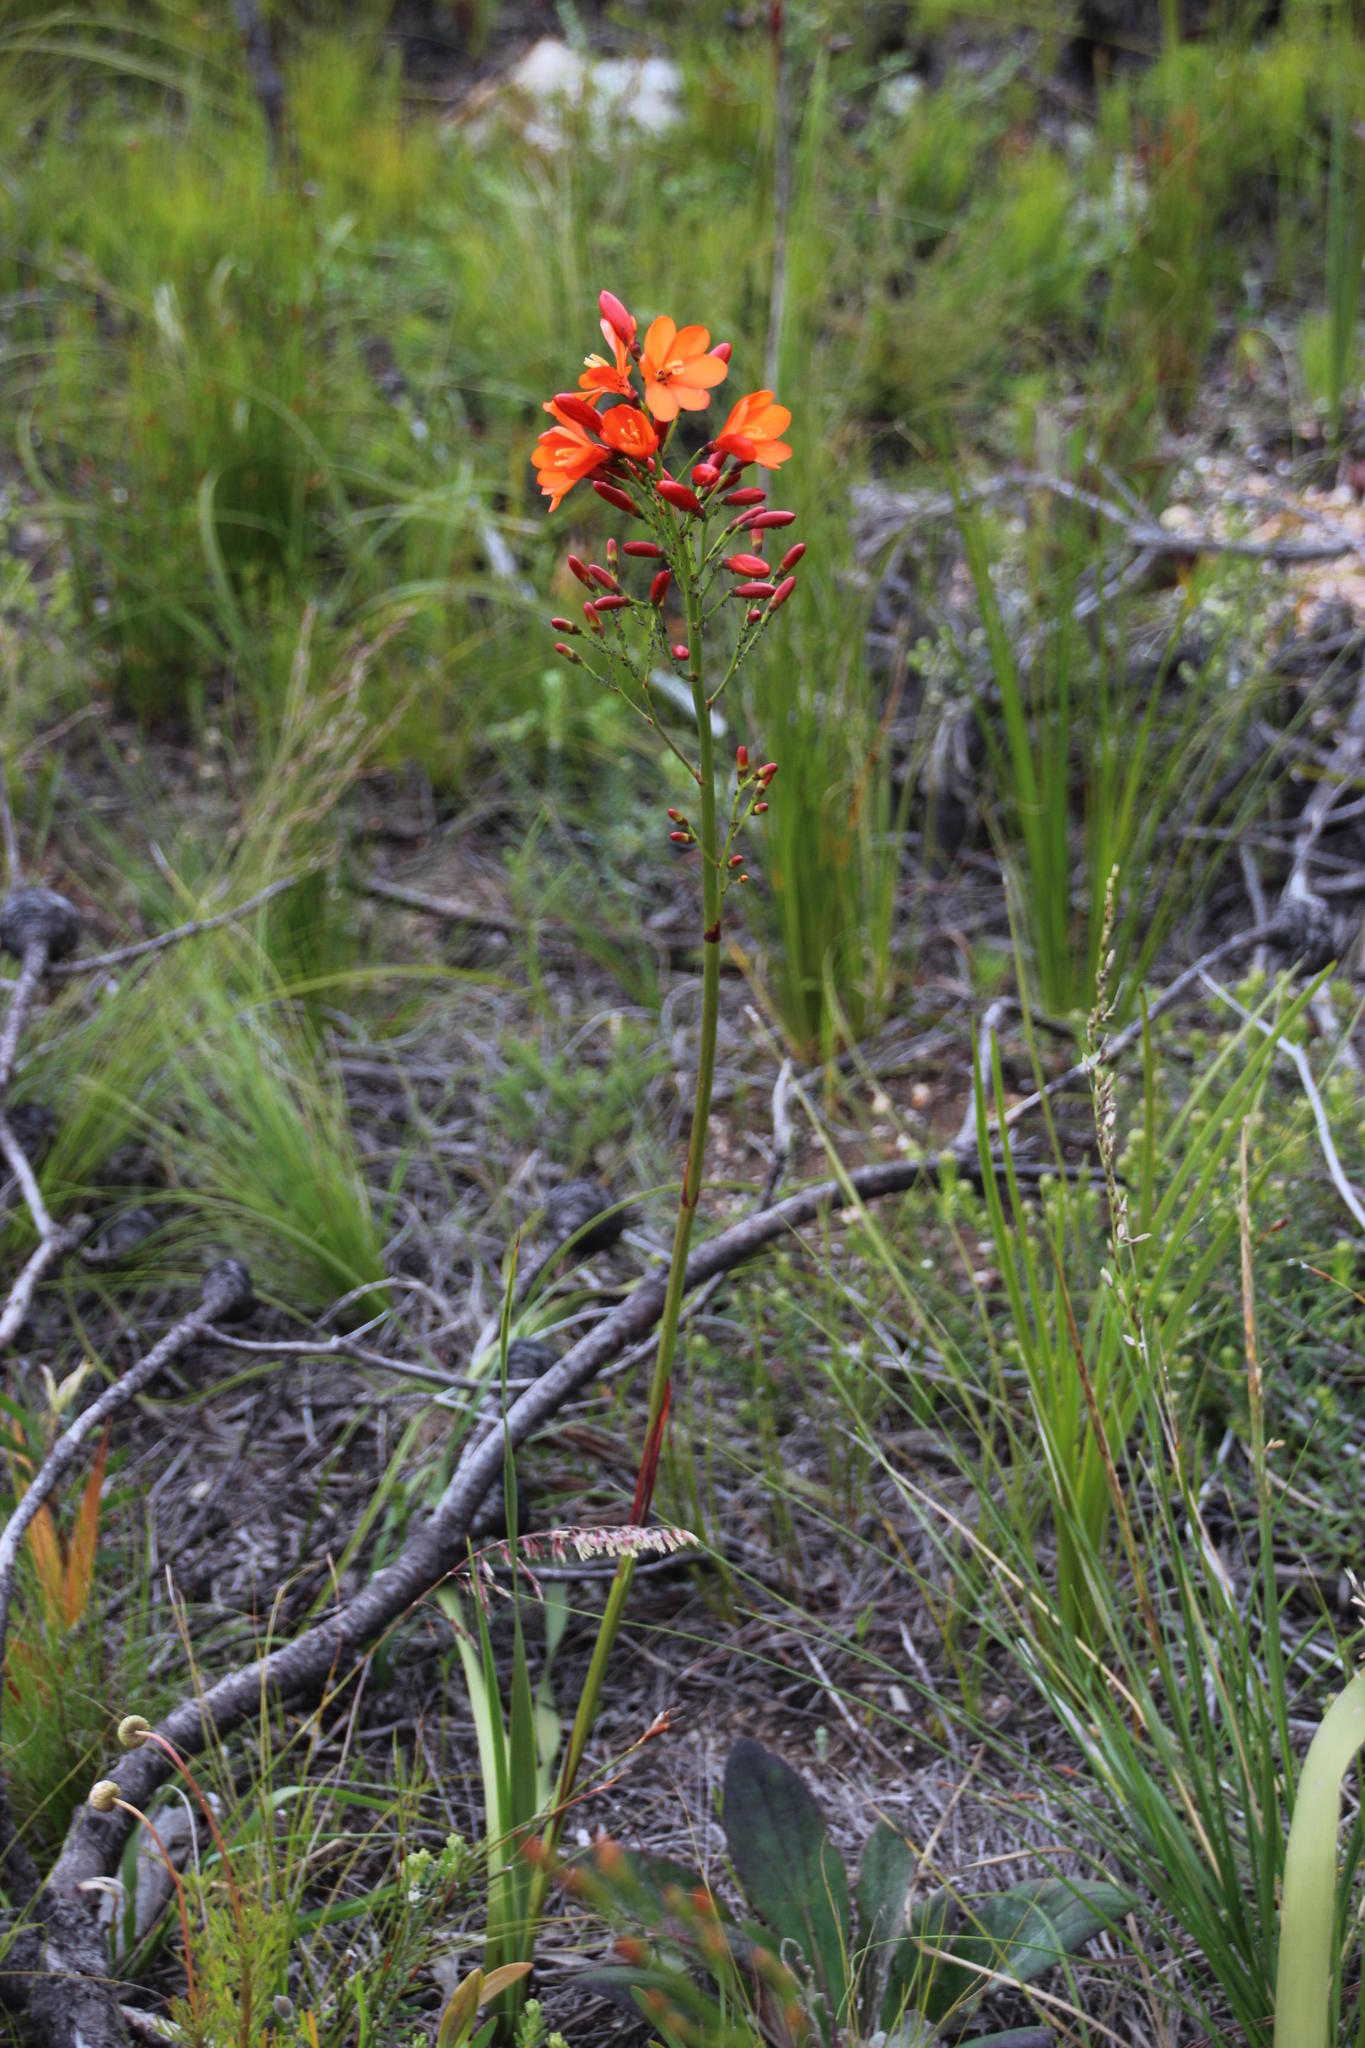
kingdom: Plantae
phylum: Tracheophyta
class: Liliopsida
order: Asparagales
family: Iridaceae
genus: Pillansia
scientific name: Pillansia templemannii
